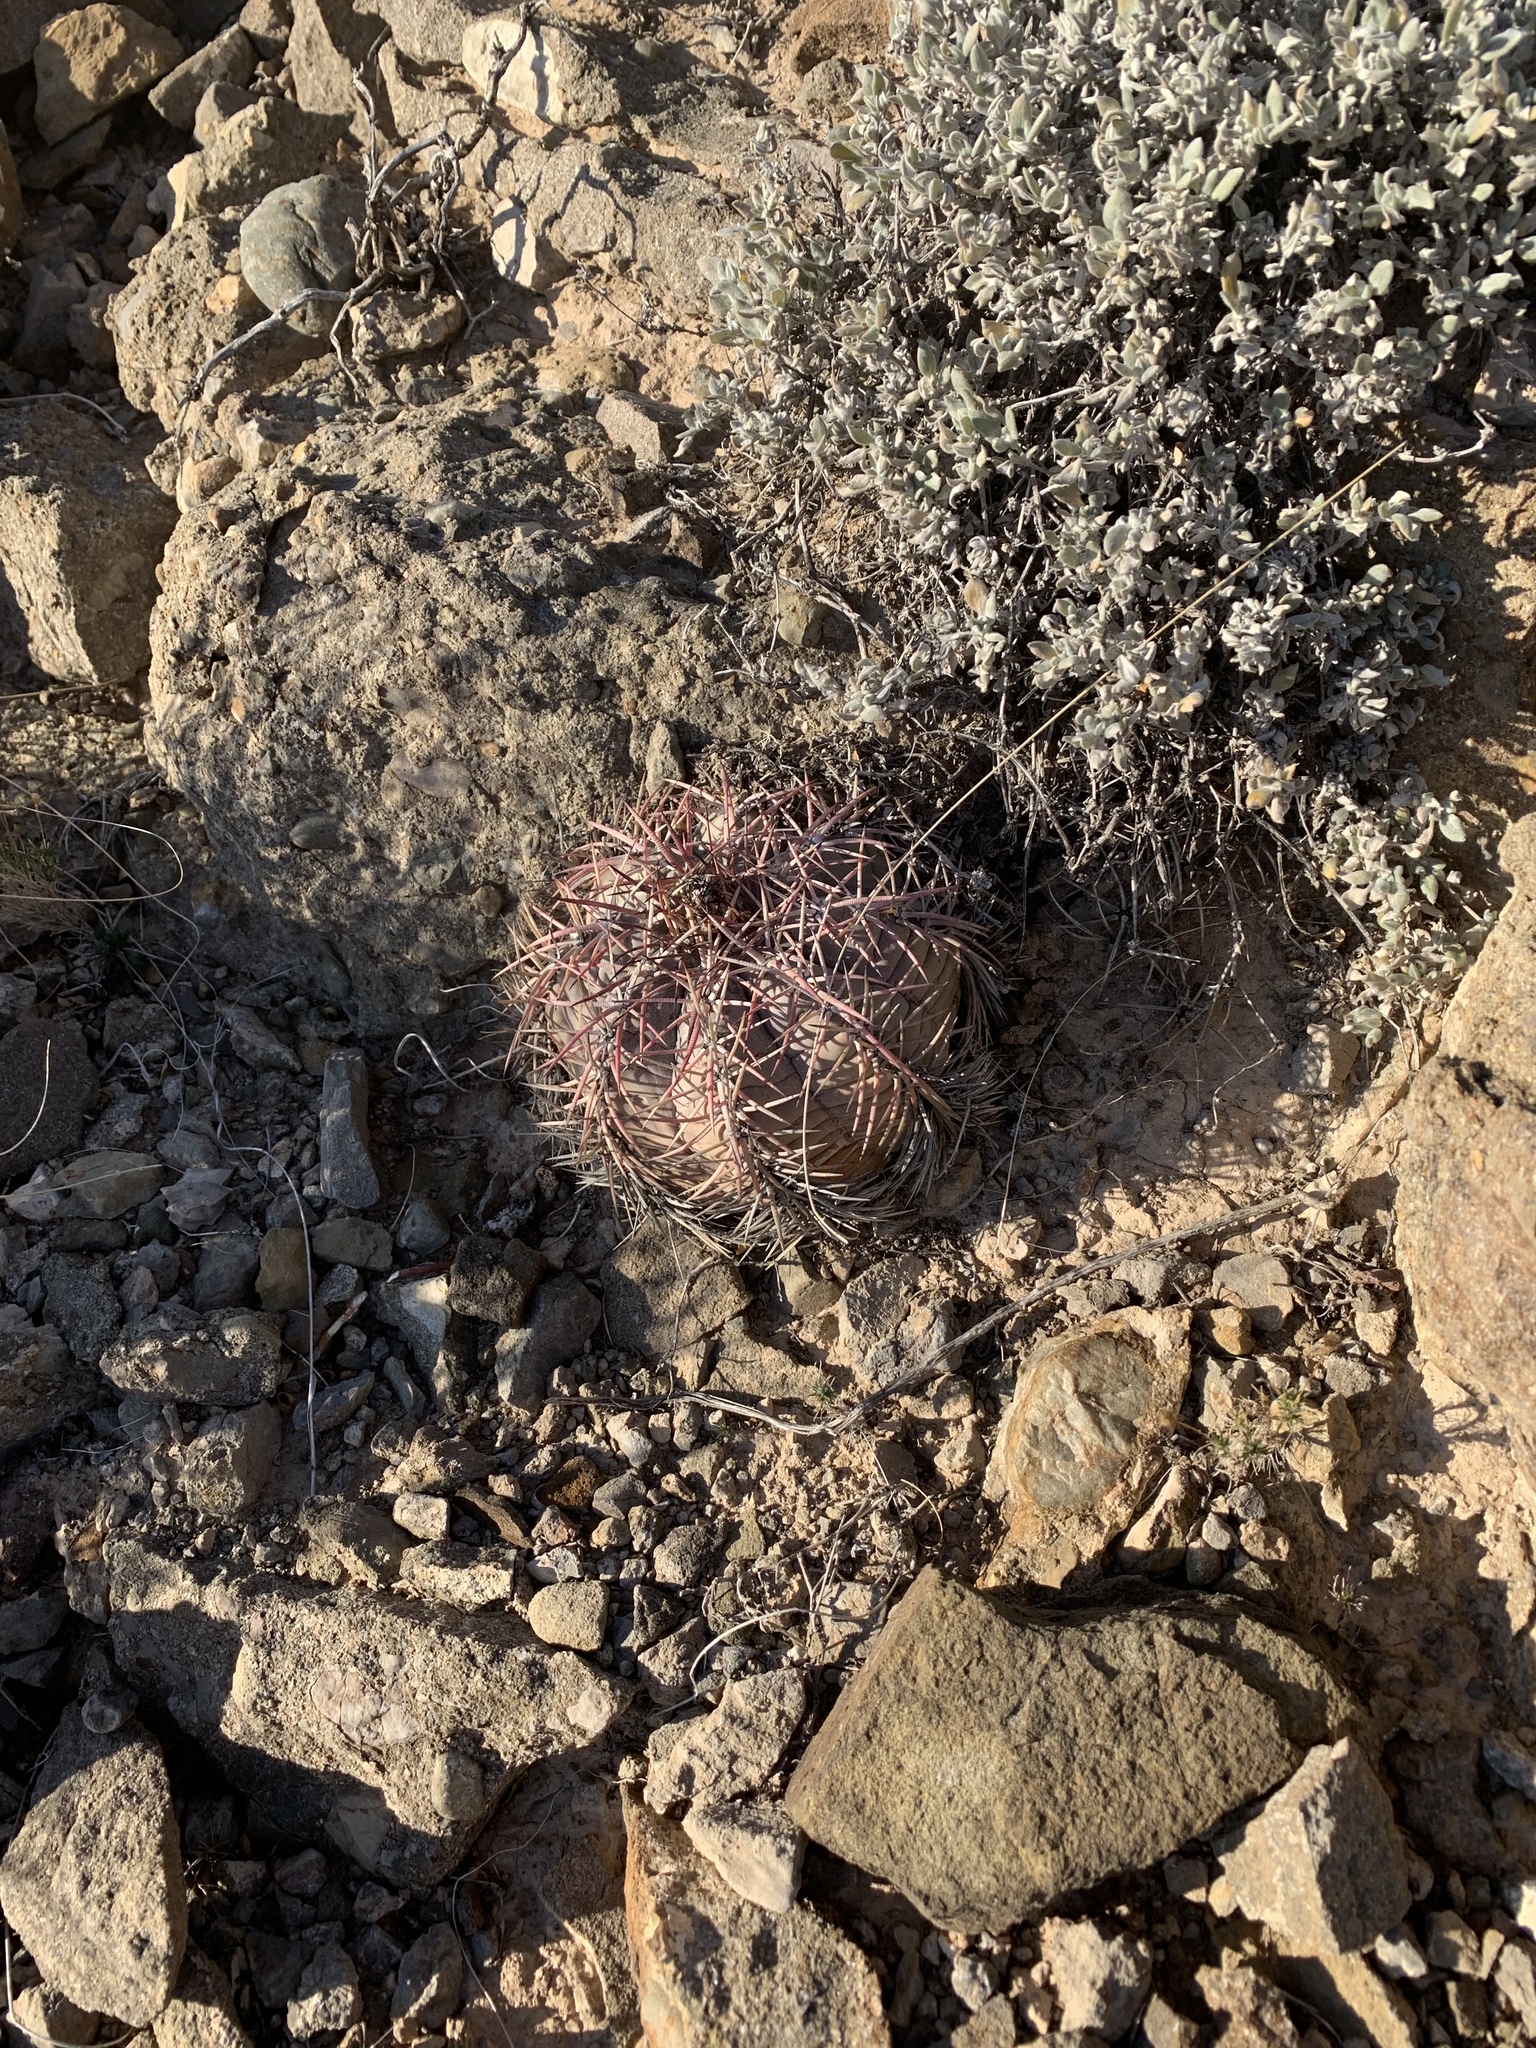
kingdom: Plantae
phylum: Tracheophyta
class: Magnoliopsida
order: Caryophyllales
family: Cactaceae
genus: Echinocactus
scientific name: Echinocactus horizonthalonius
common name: Devilshead
